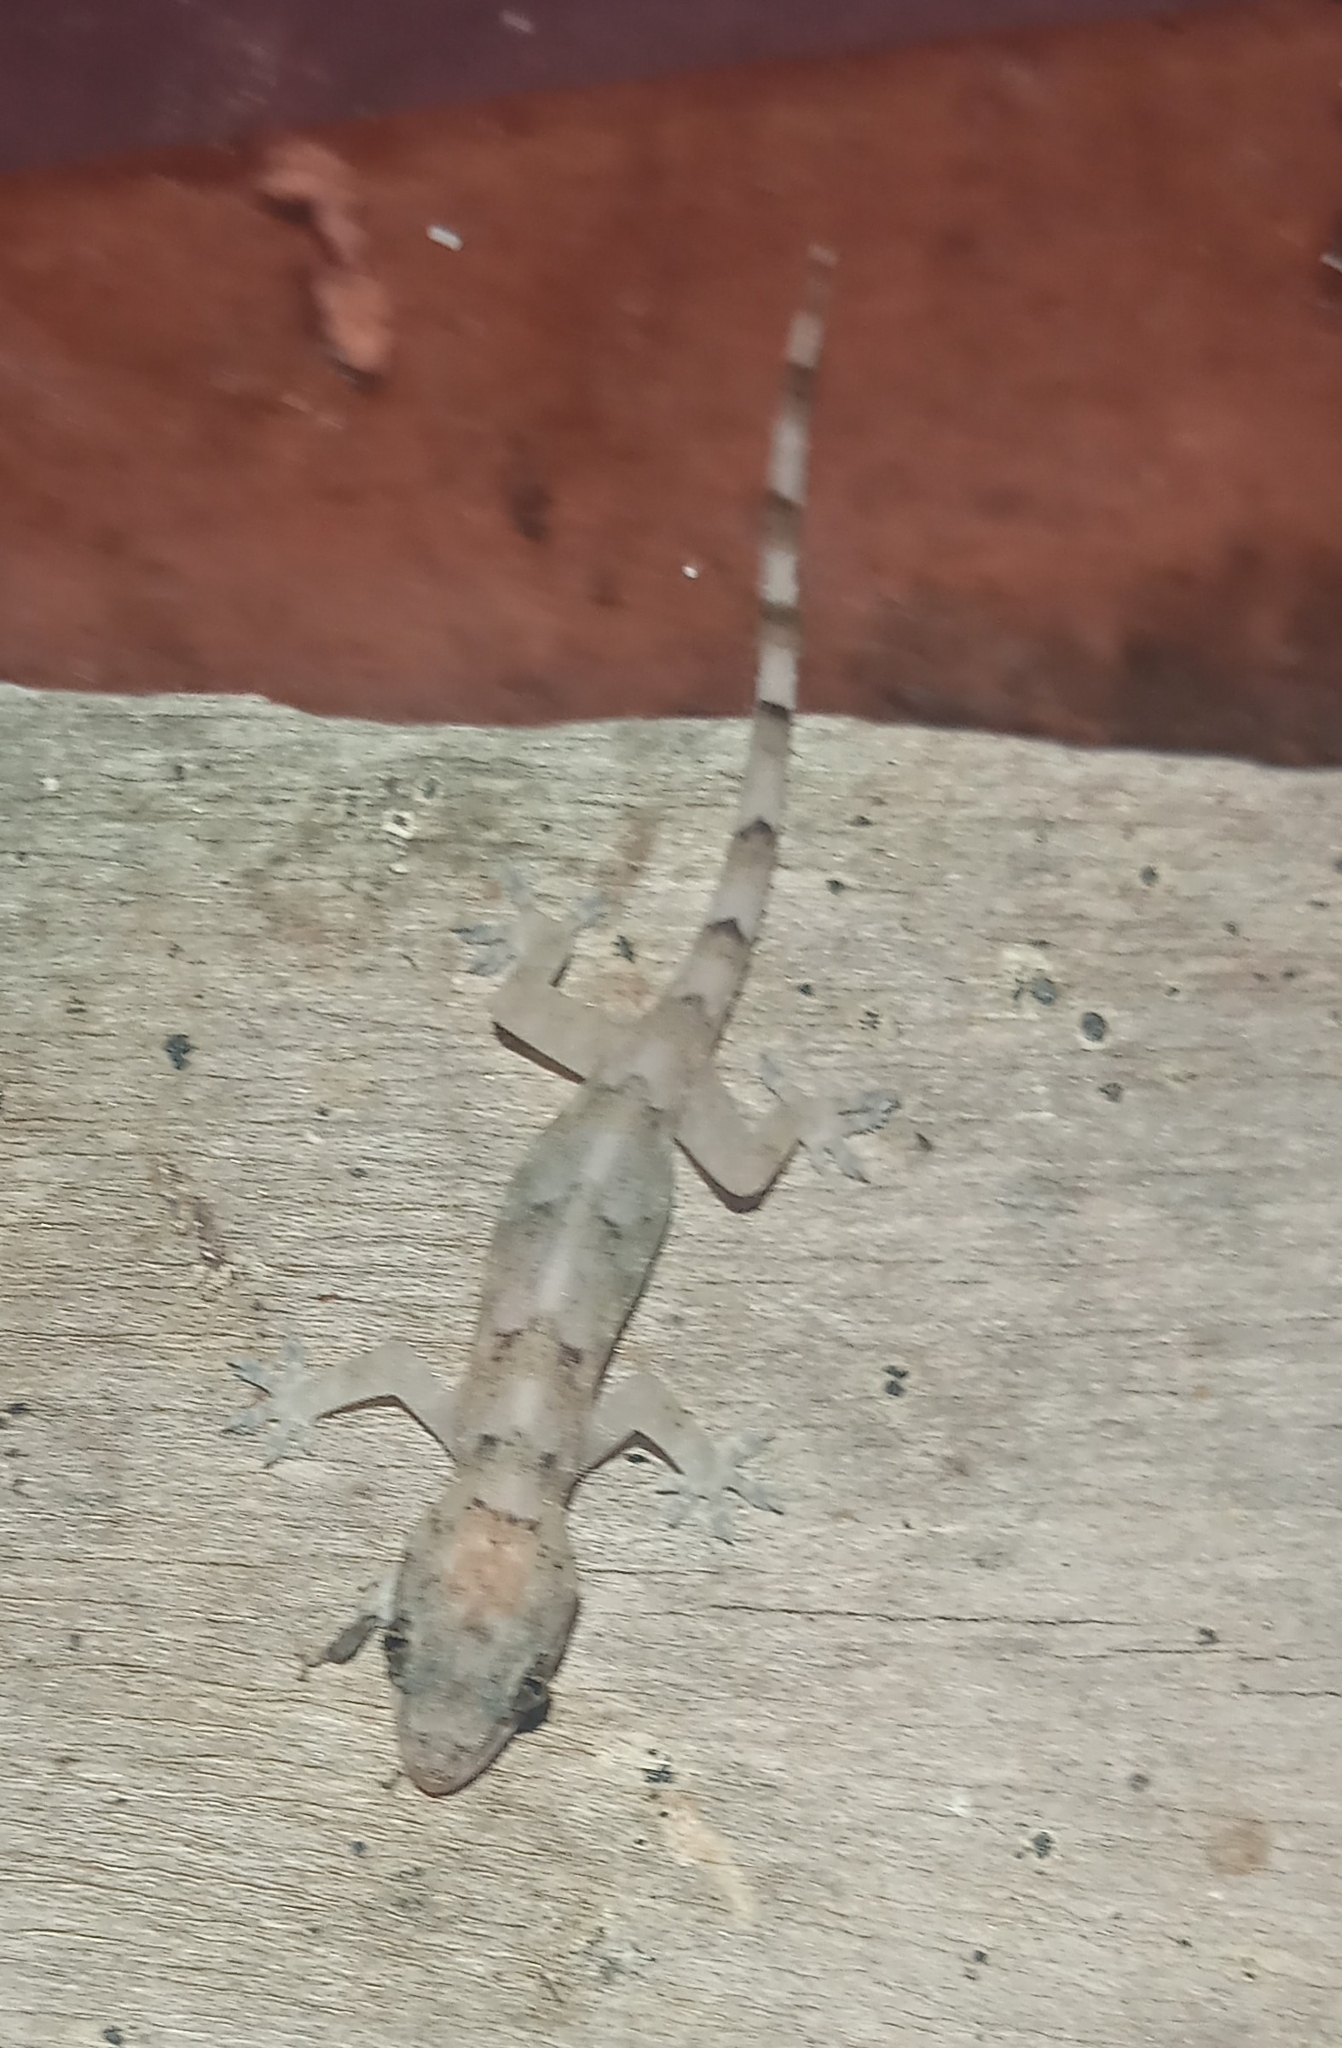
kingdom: Animalia
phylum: Chordata
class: Squamata
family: Gekkonidae
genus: Hemidactylus
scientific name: Hemidactylus mabouia
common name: House gecko
